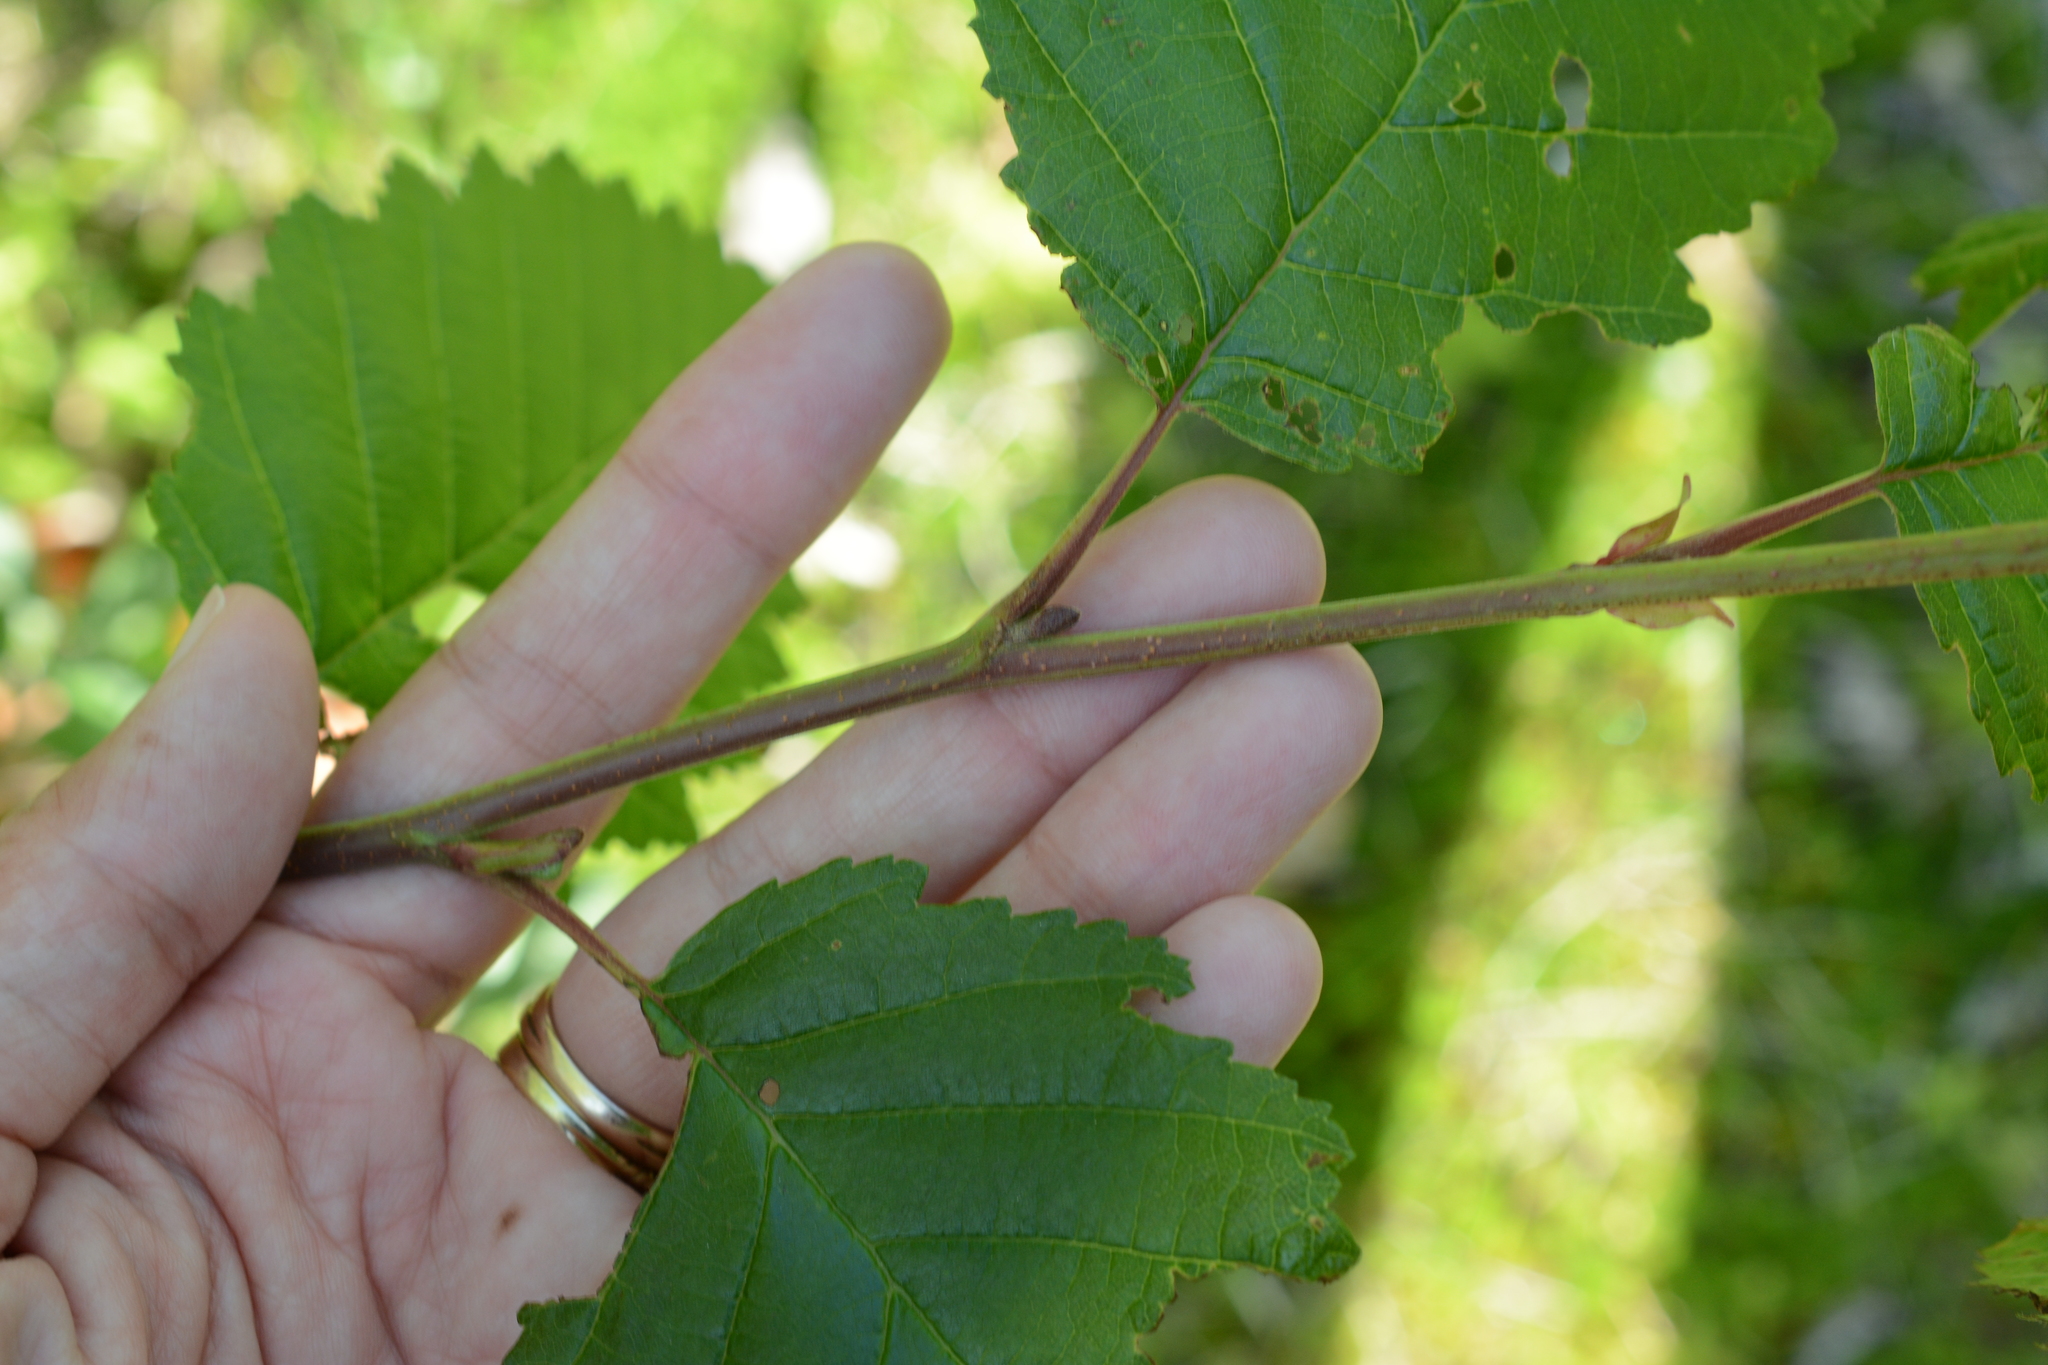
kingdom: Plantae
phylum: Tracheophyta
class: Magnoliopsida
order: Fagales
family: Betulaceae
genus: Alnus
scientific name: Alnus incana
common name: Grey alder
